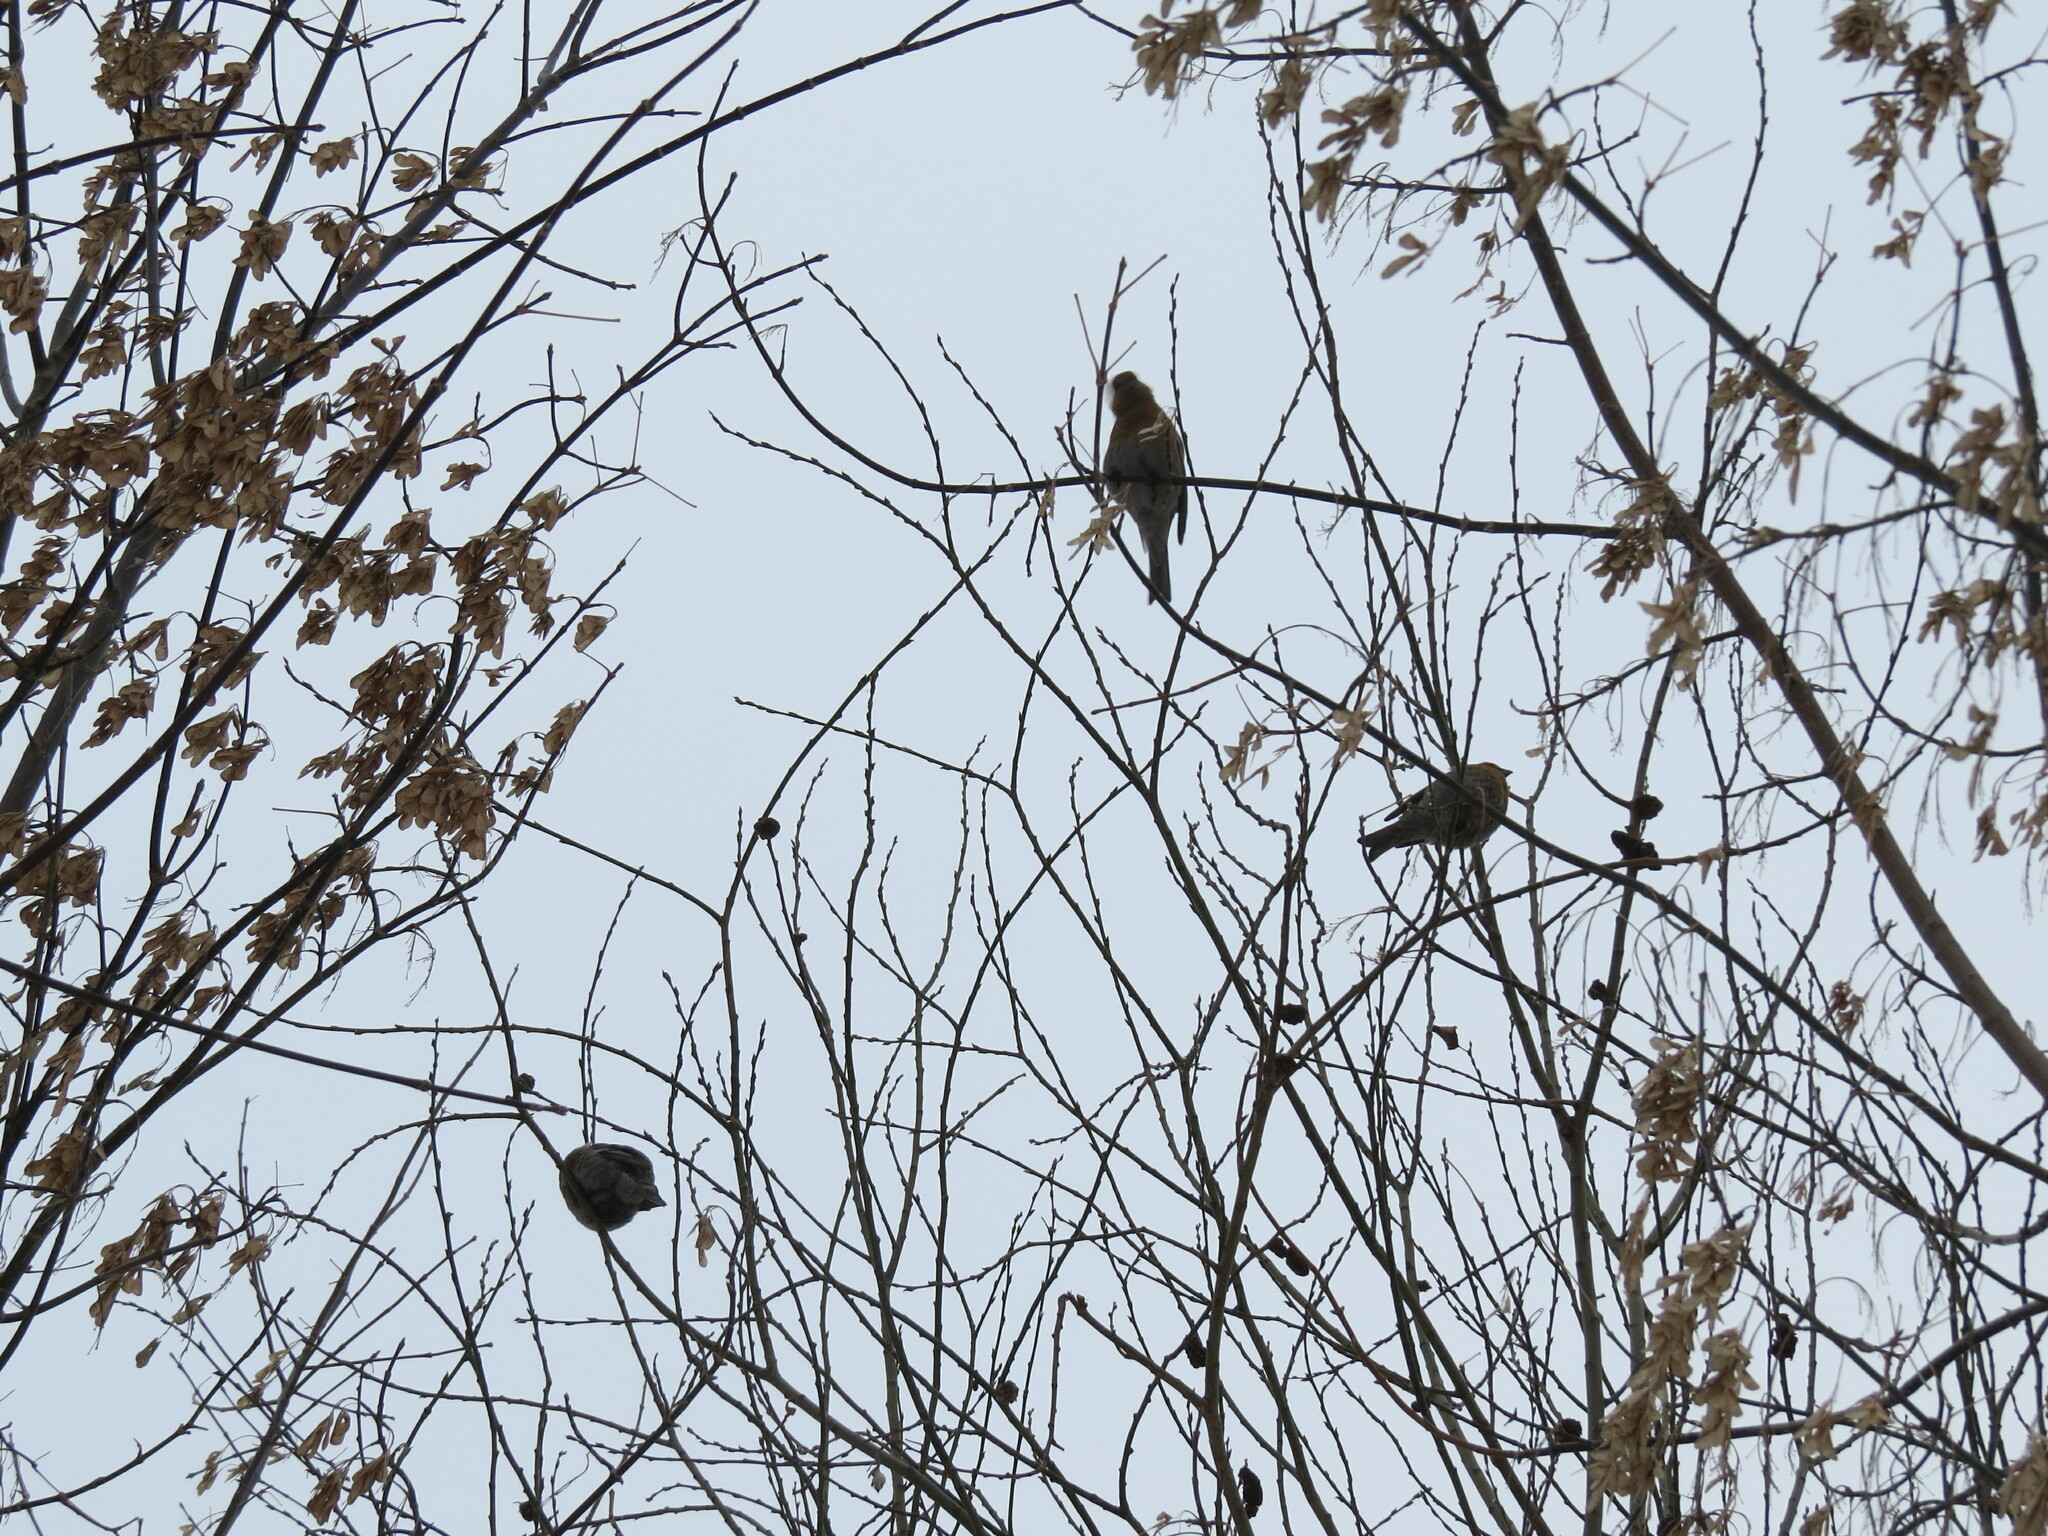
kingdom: Animalia
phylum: Chordata
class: Aves
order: Passeriformes
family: Fringillidae
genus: Pinicola
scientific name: Pinicola enucleator
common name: Pine grosbeak
